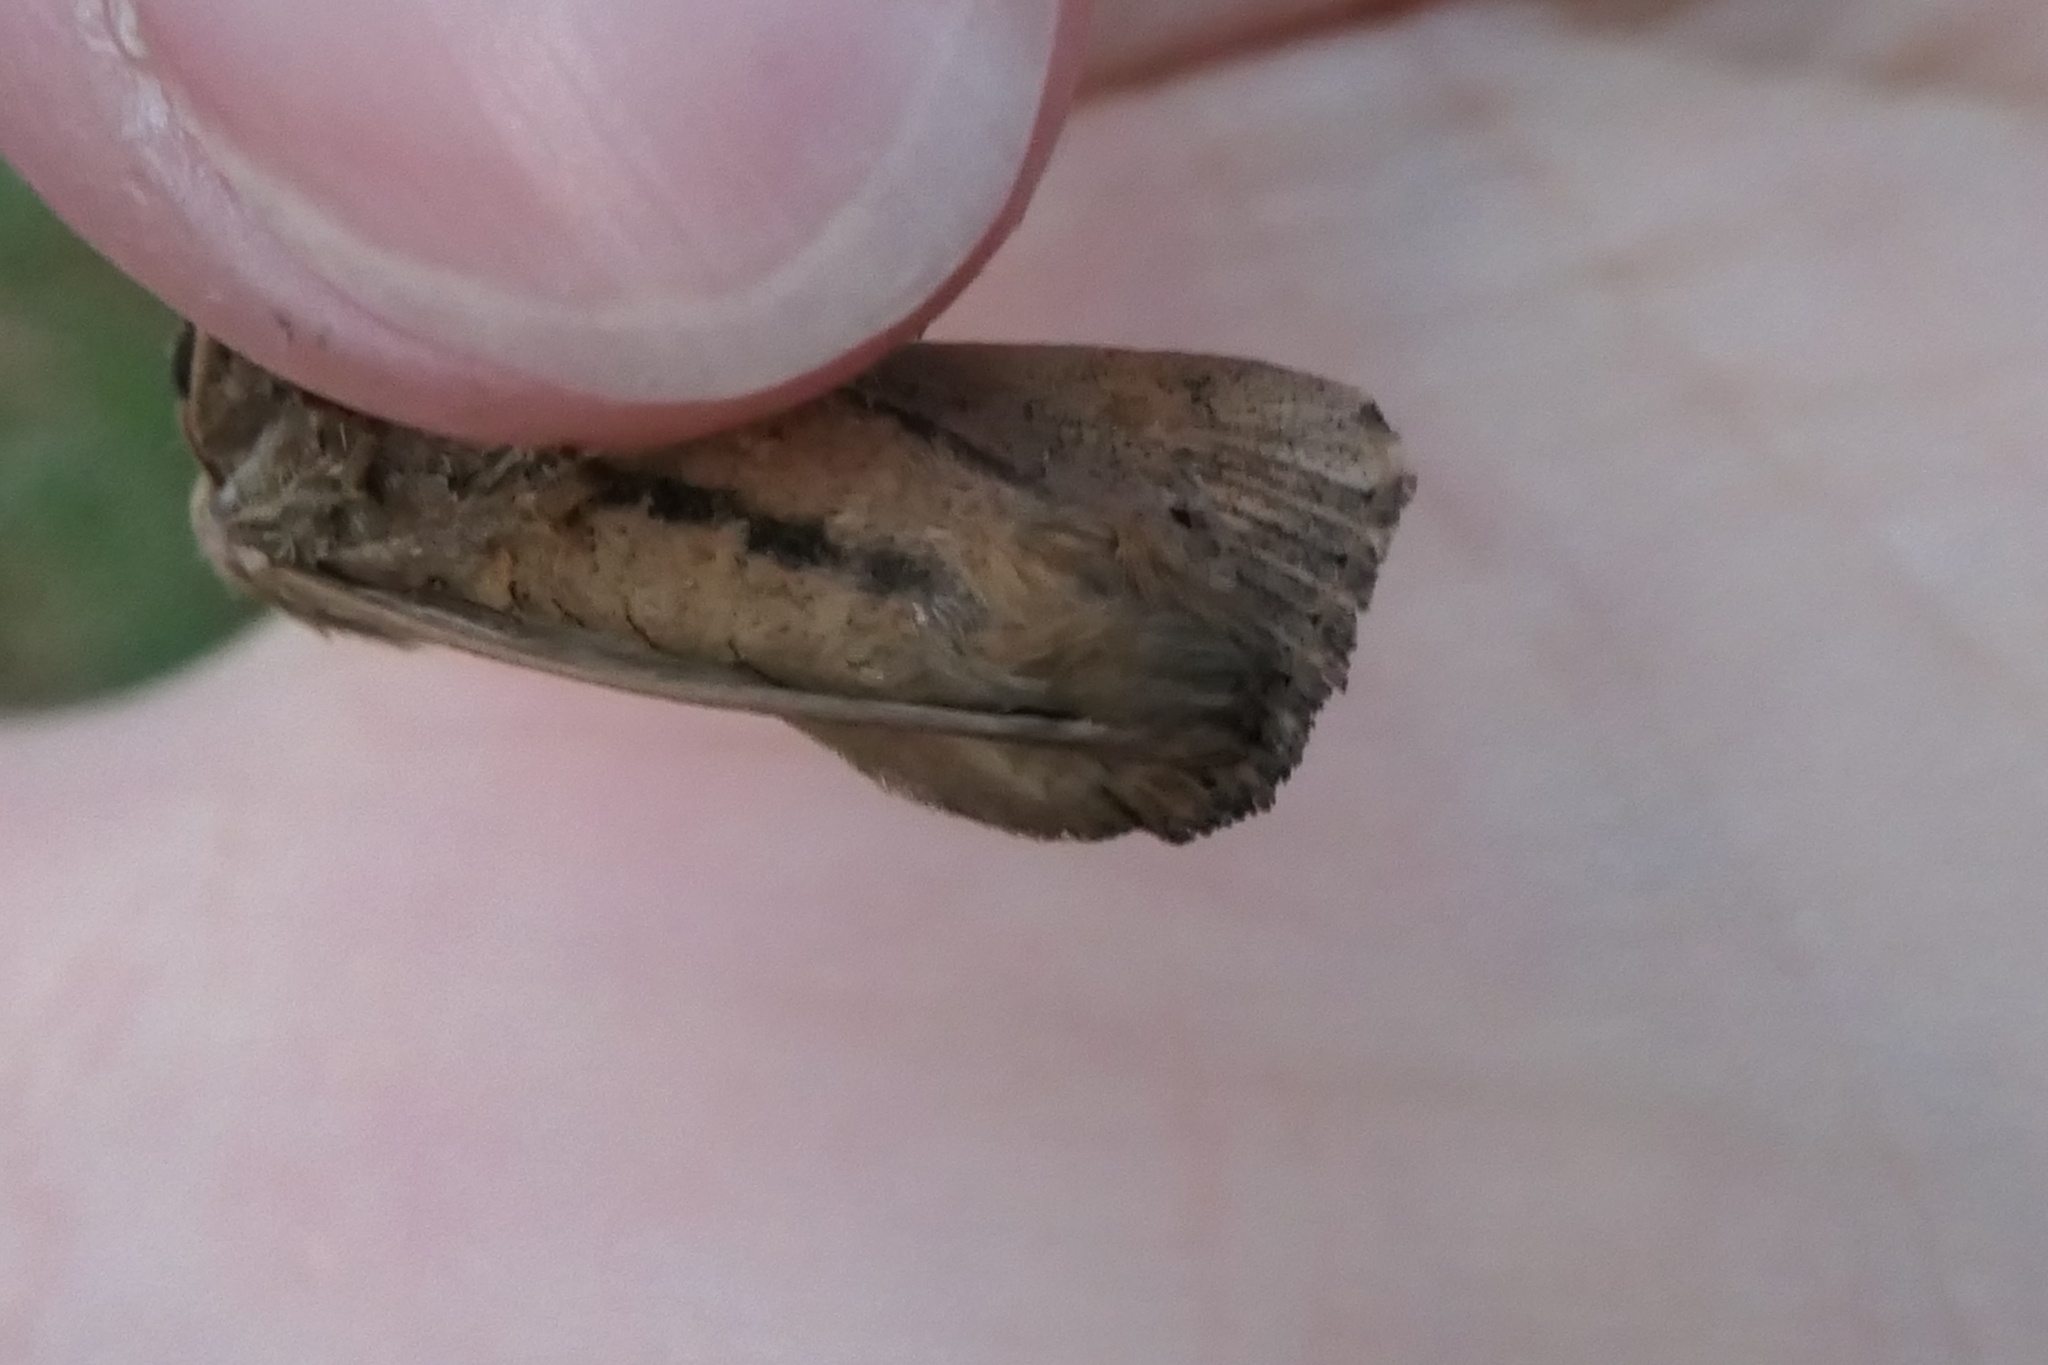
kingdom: Animalia
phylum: Arthropoda
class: Insecta
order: Lepidoptera
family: Noctuidae
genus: Leucania
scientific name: Leucania stenographa
